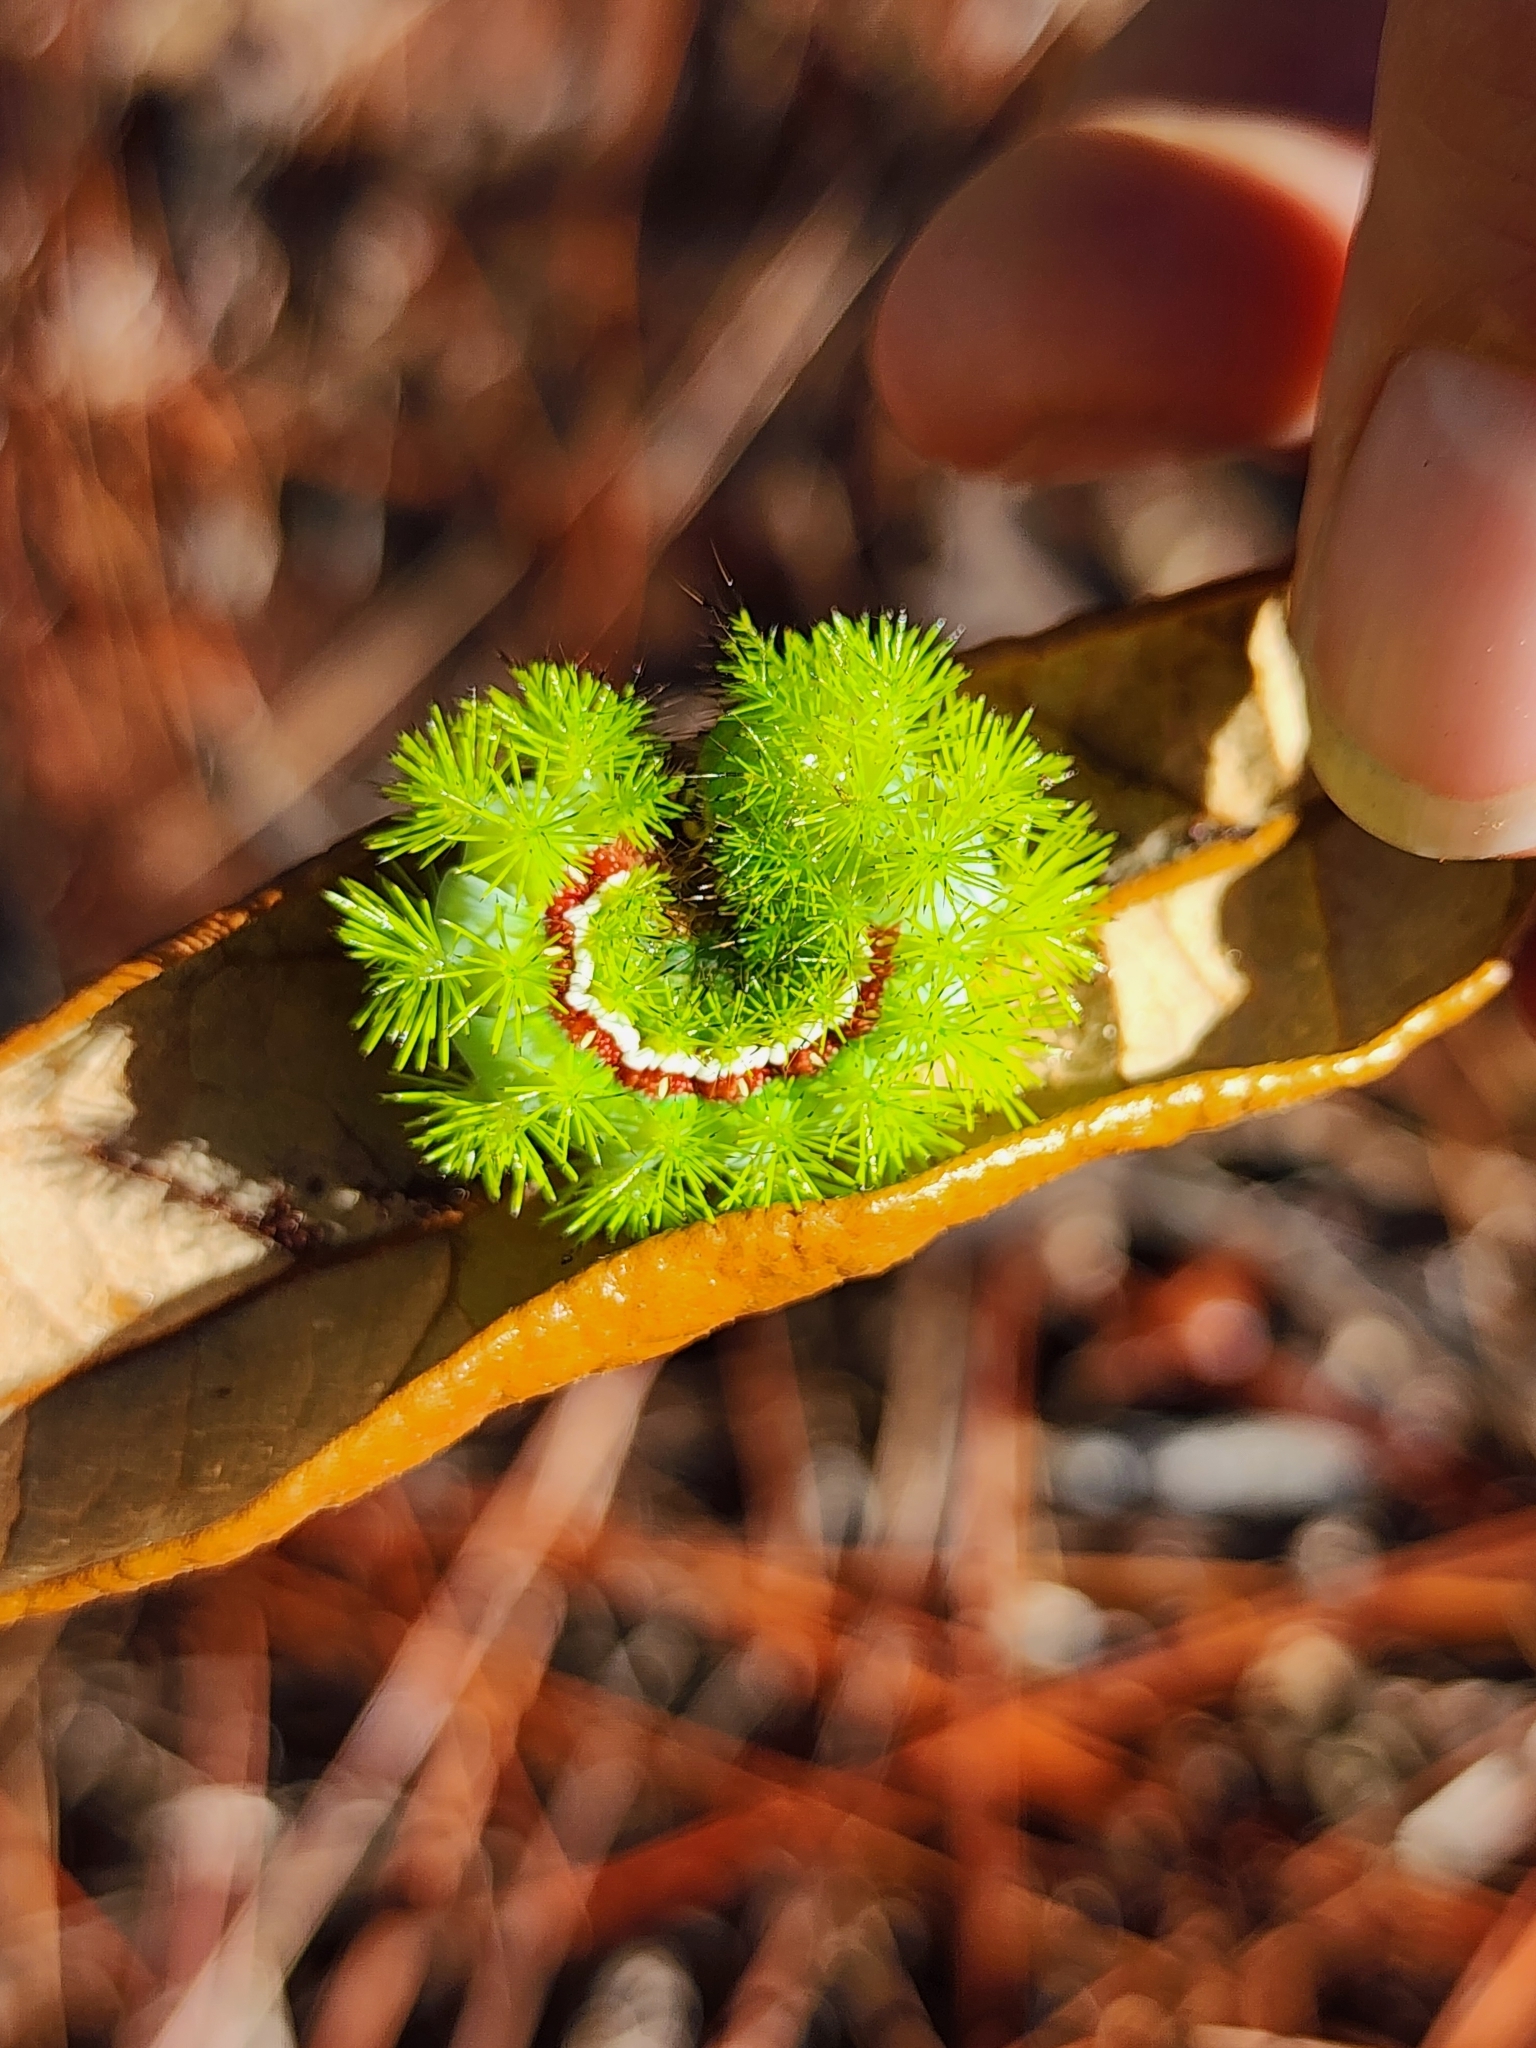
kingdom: Animalia
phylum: Arthropoda
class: Insecta
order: Lepidoptera
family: Saturniidae
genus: Automeris
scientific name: Automeris io
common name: Io moth
